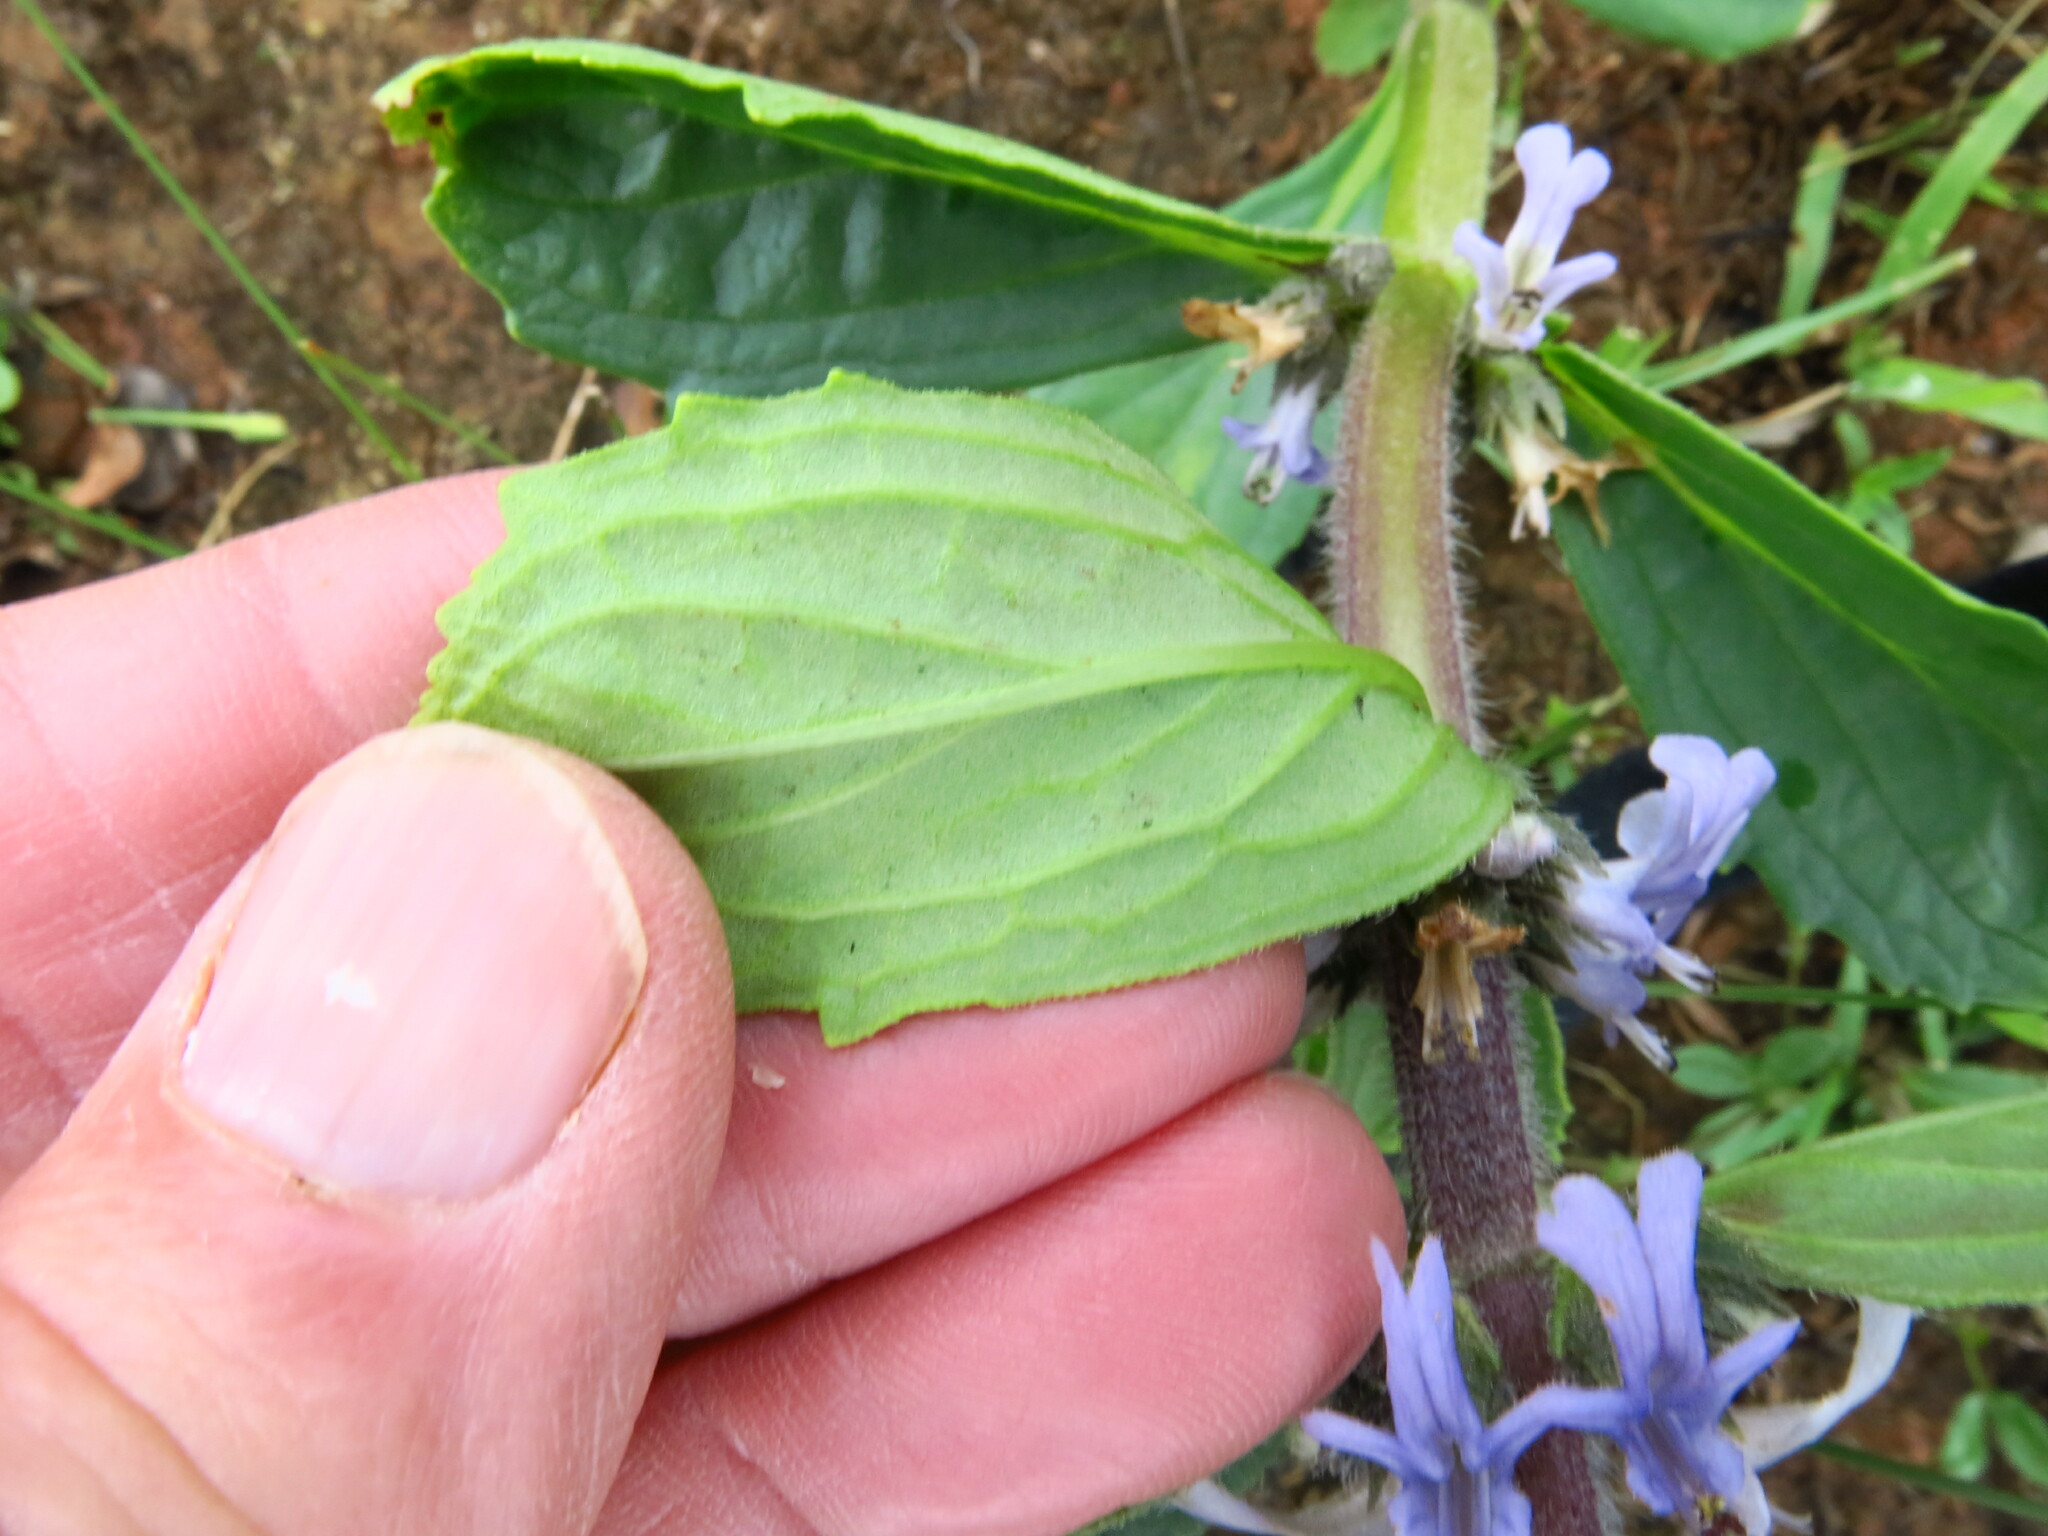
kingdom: Plantae
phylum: Tracheophyta
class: Magnoliopsida
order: Lamiales
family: Lamiaceae
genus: Ajuga
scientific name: Ajuga ophrydis
